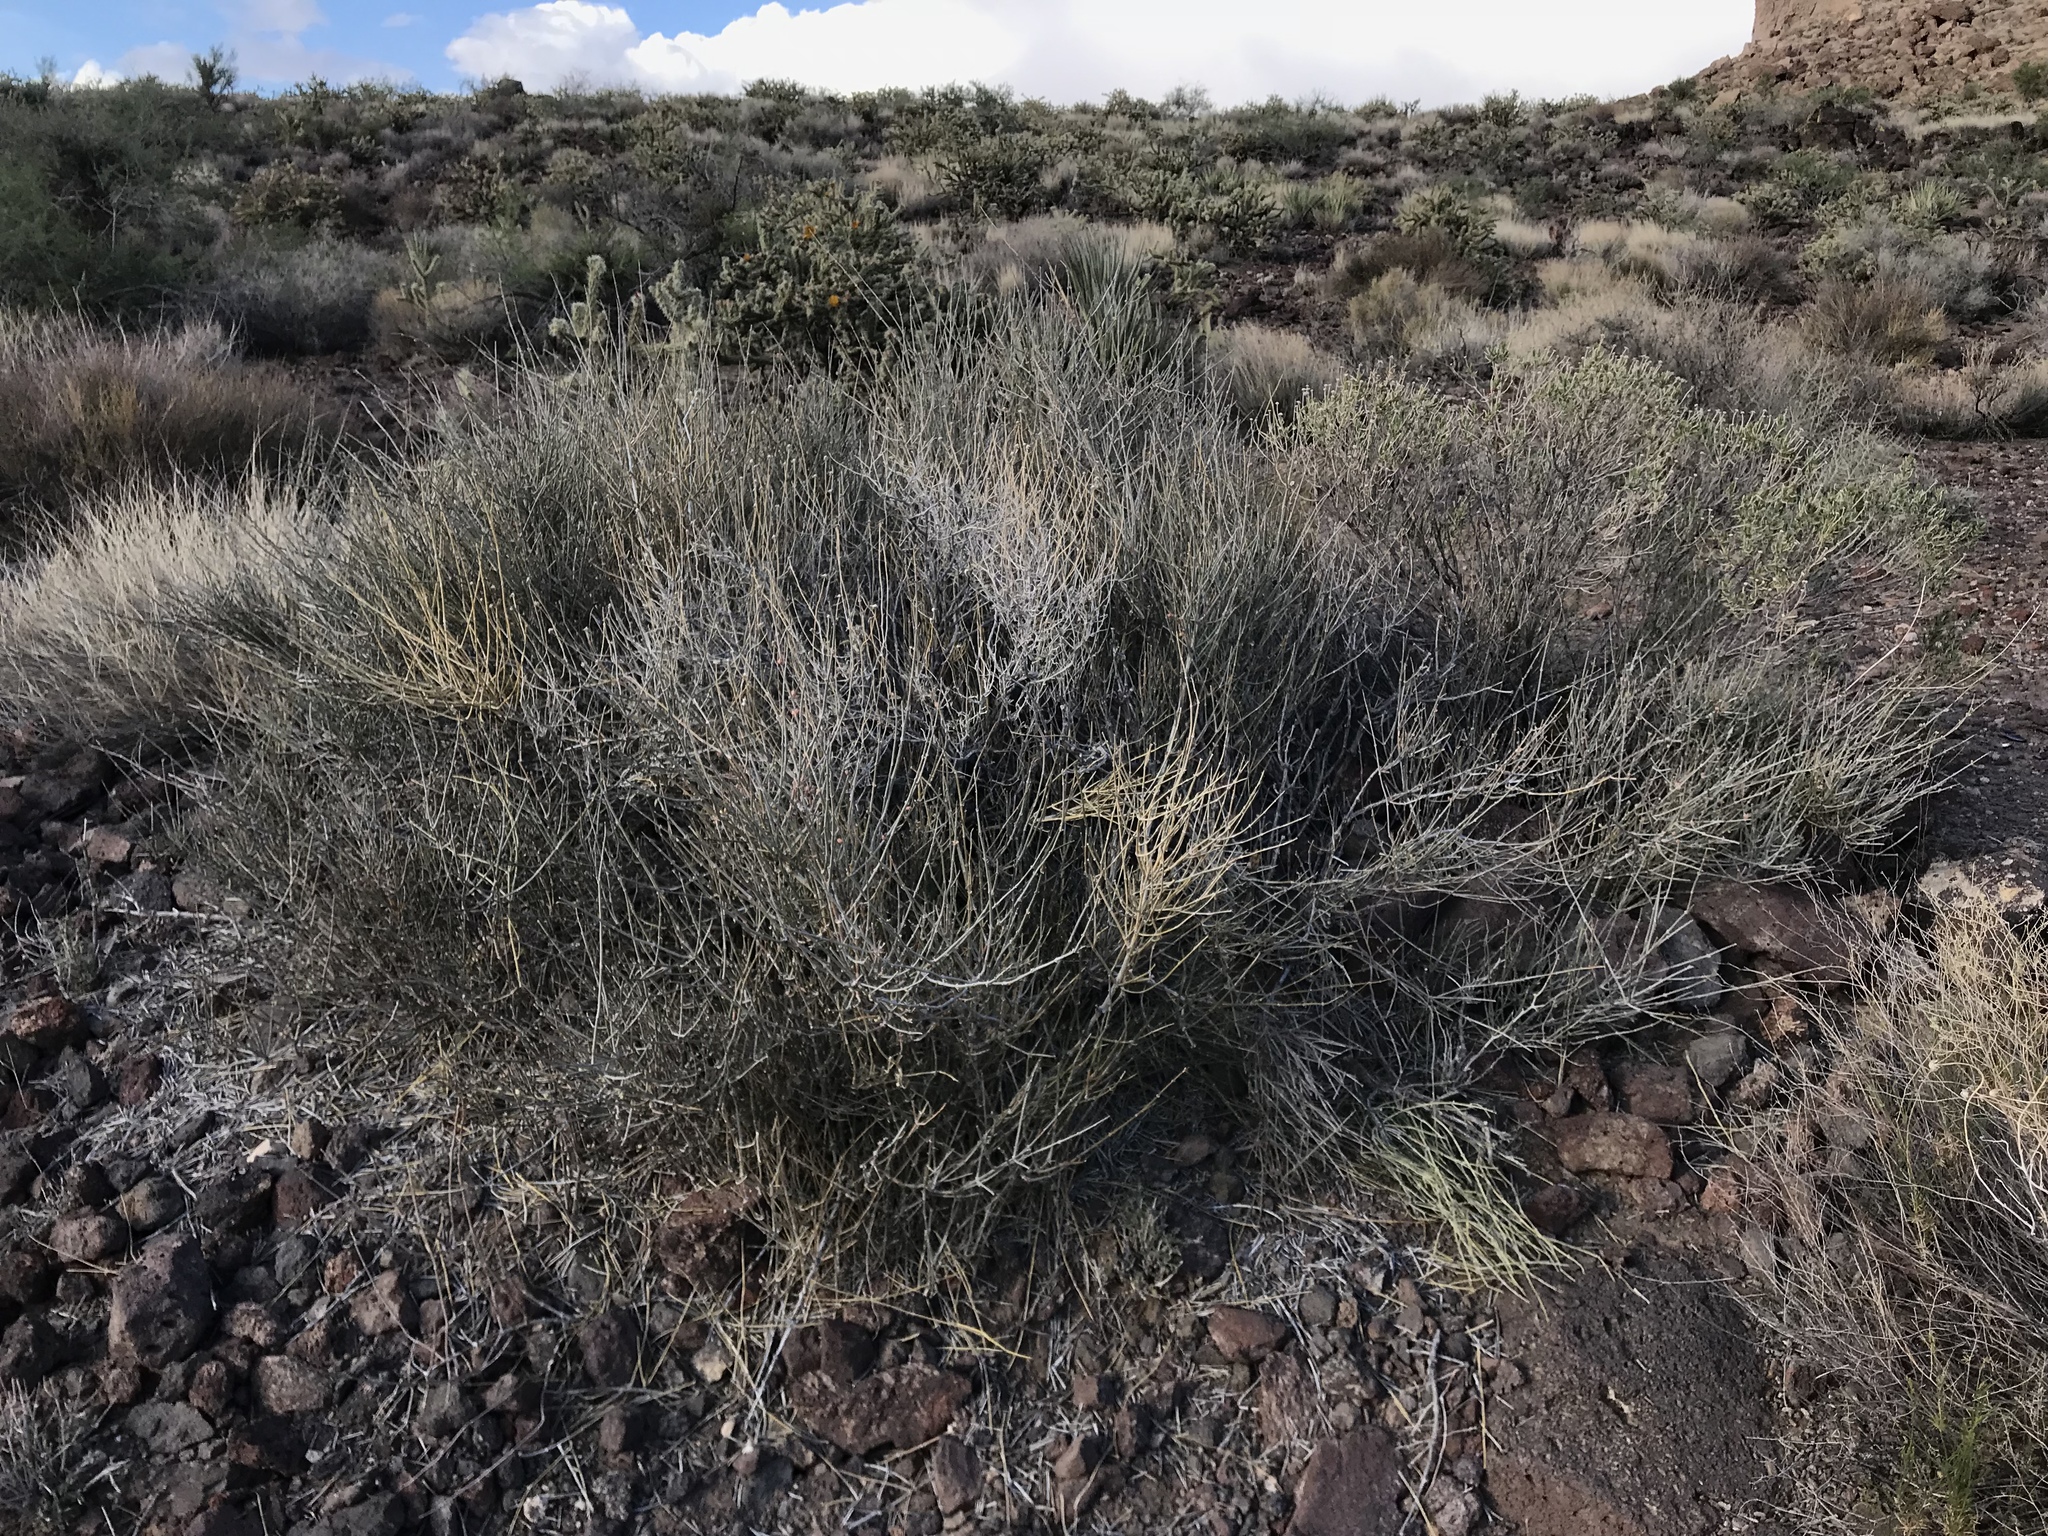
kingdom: Plantae
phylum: Tracheophyta
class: Gnetopsida
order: Ephedrales
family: Ephedraceae
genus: Ephedra
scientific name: Ephedra nevadensis
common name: Gray ephedra
